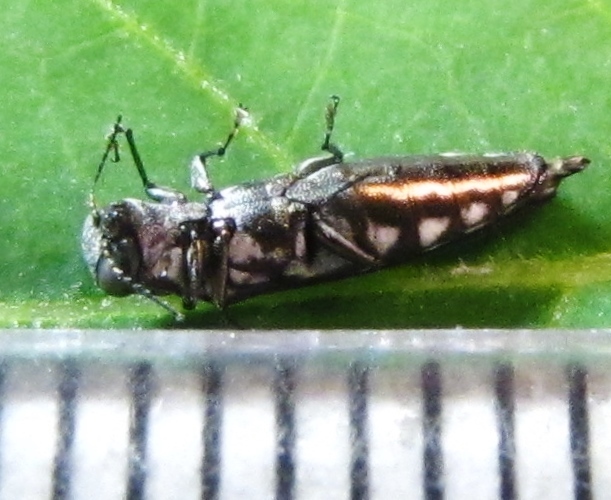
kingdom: Animalia
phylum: Arthropoda
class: Insecta
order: Coleoptera
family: Buprestidae
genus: Agrilus
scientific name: Agrilus quadriguttatus
